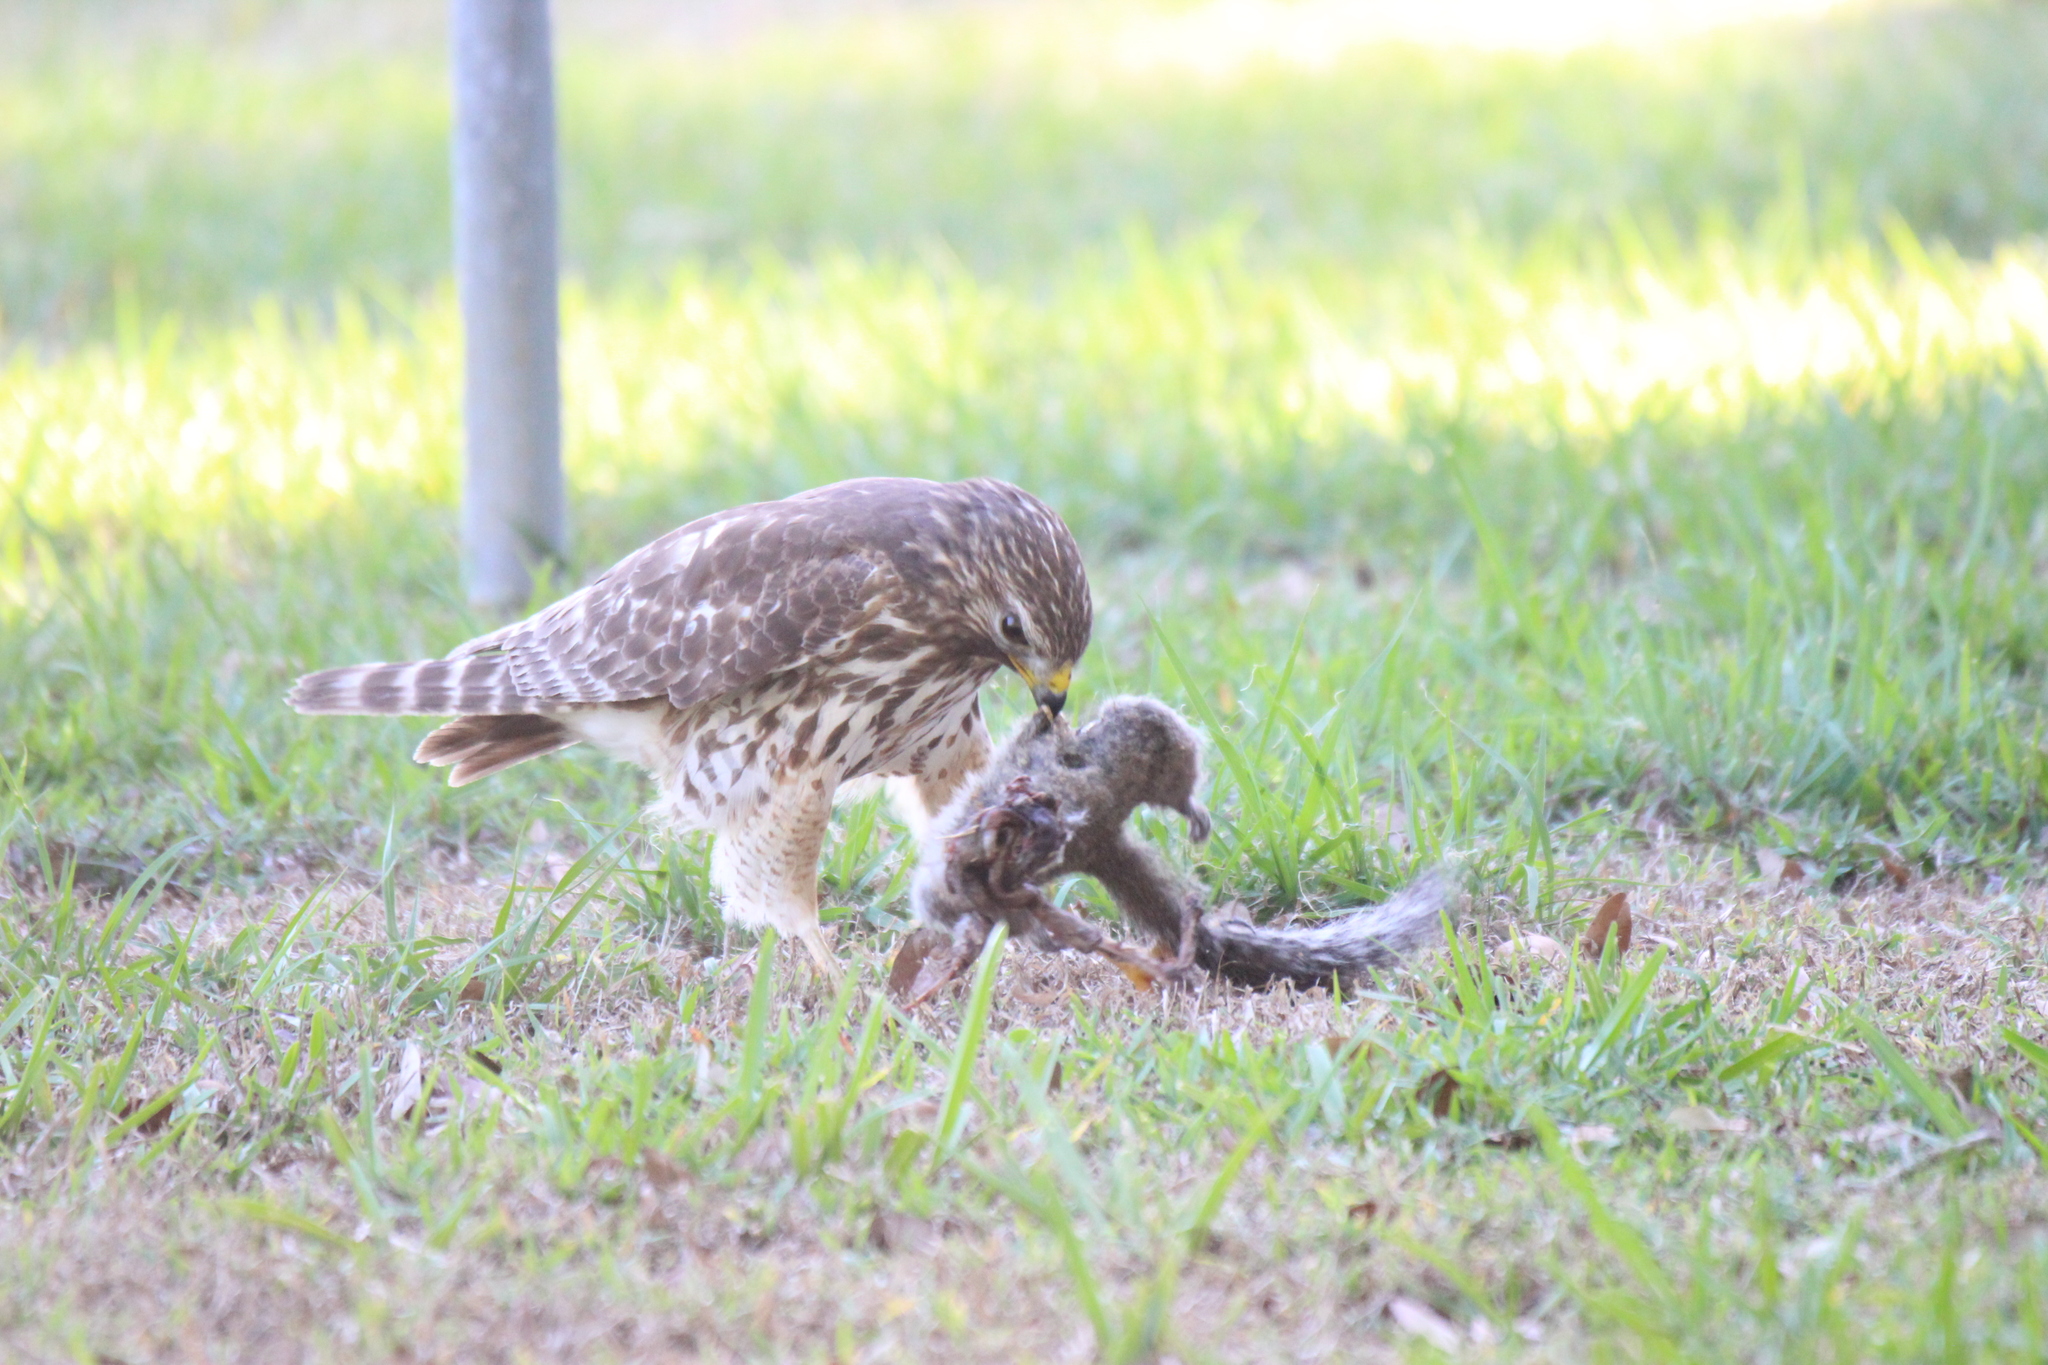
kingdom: Animalia
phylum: Chordata
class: Aves
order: Accipitriformes
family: Accipitridae
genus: Buteo
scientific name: Buteo lineatus
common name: Red-shouldered hawk
